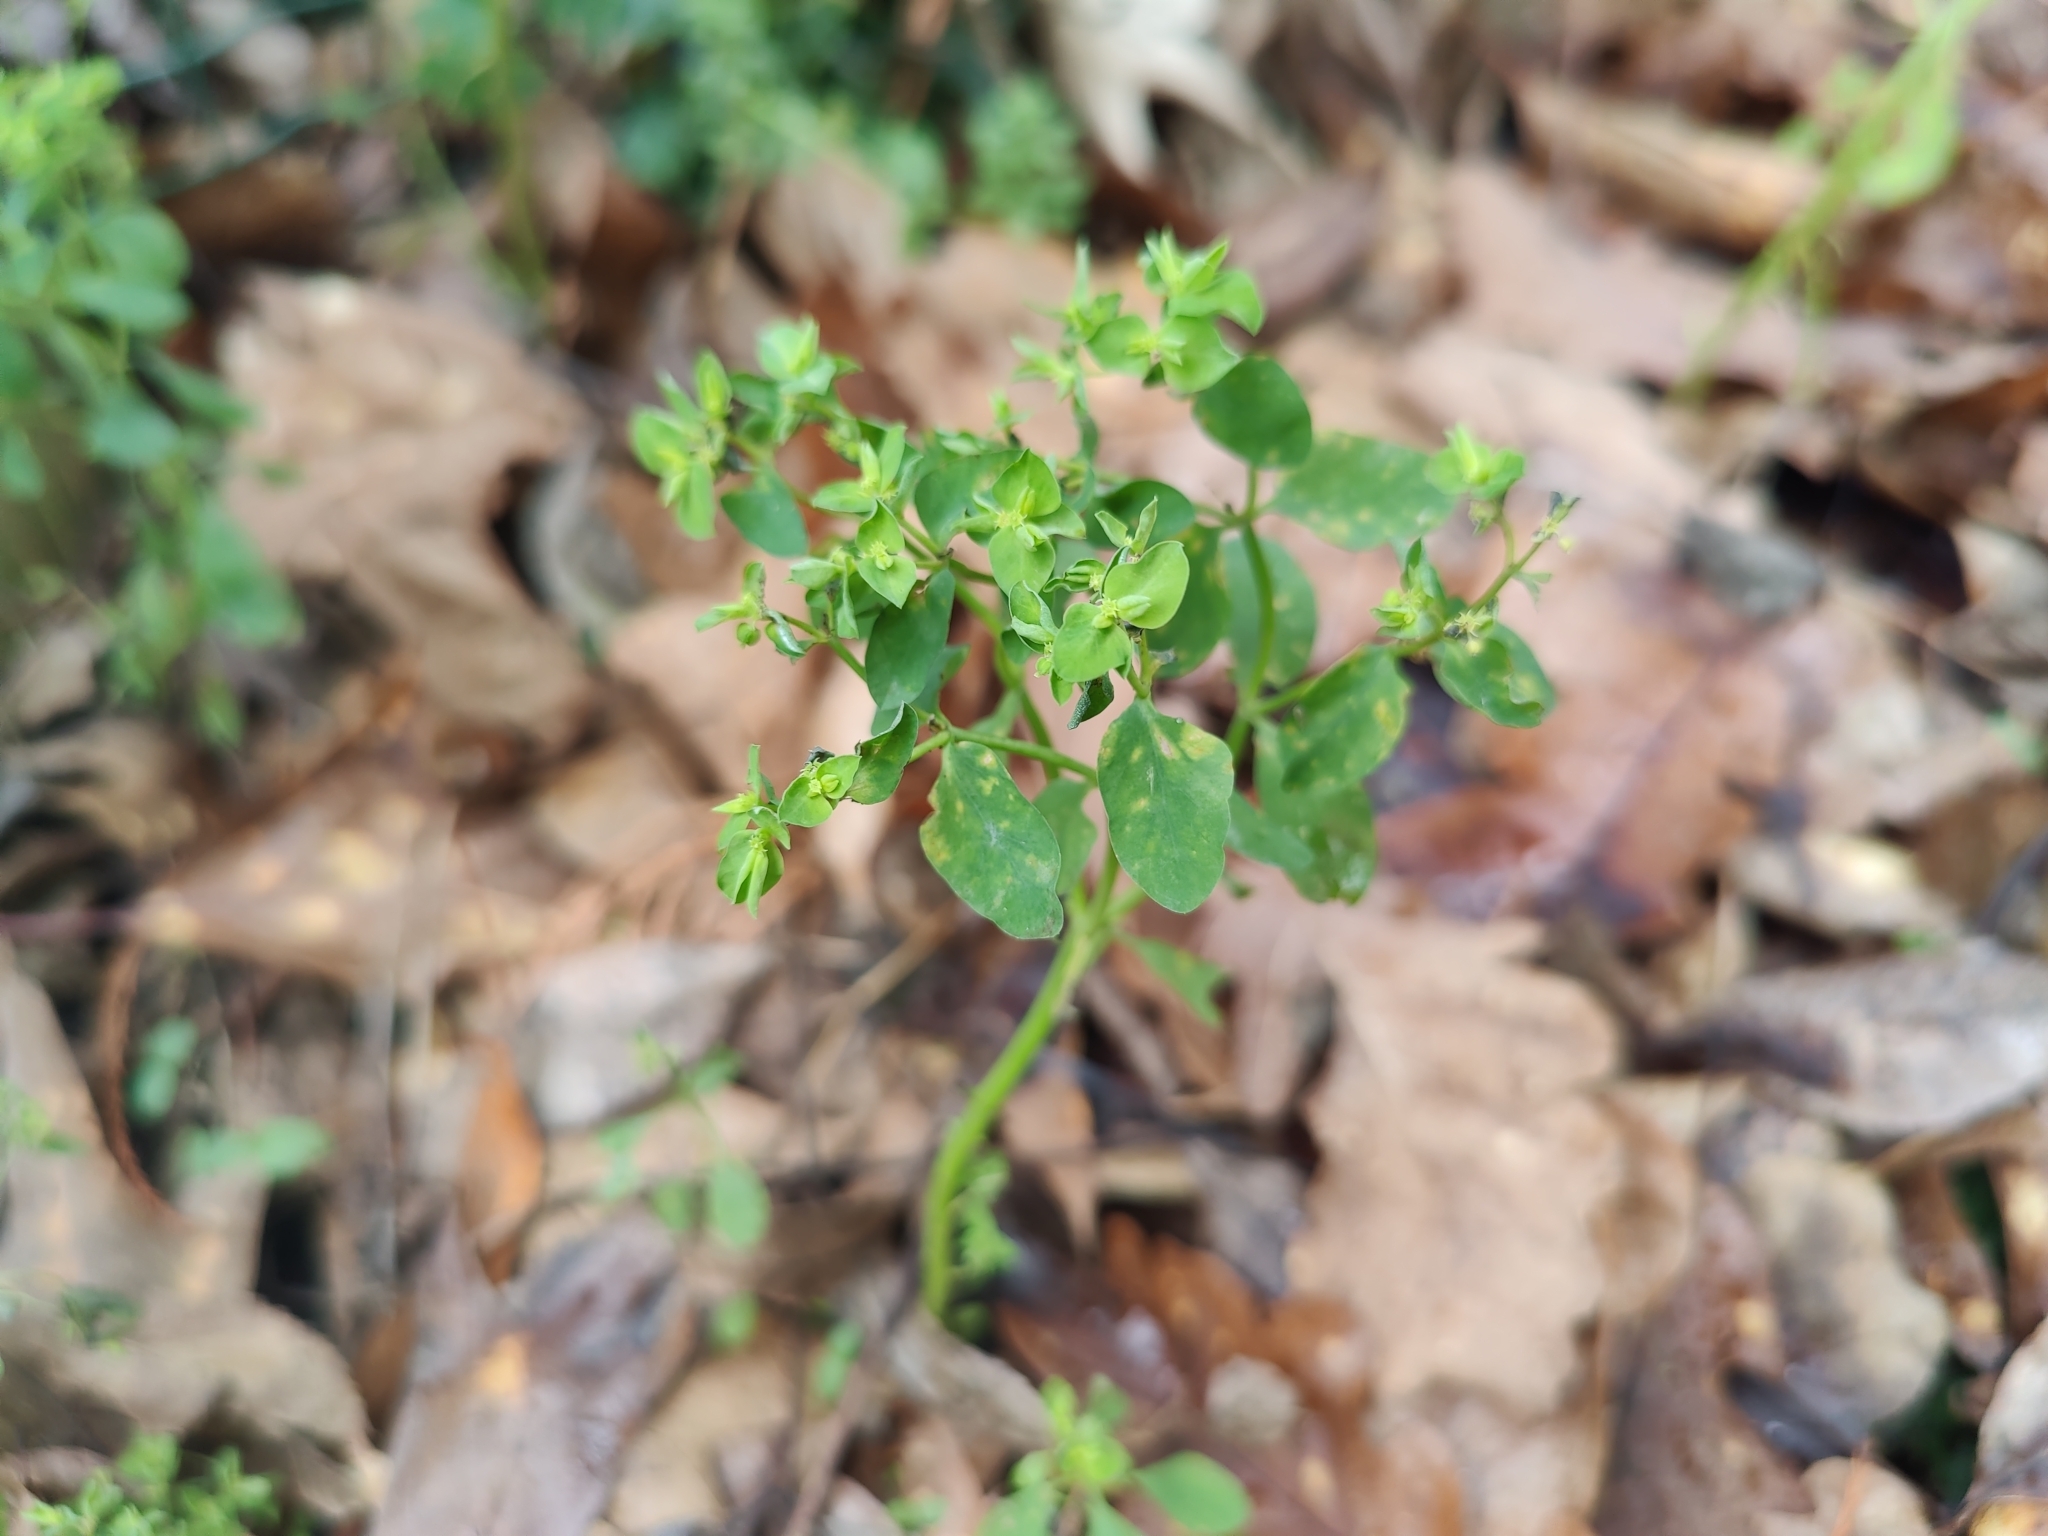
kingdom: Plantae
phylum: Tracheophyta
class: Magnoliopsida
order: Malpighiales
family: Euphorbiaceae
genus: Euphorbia
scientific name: Euphorbia peplus
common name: Petty spurge
